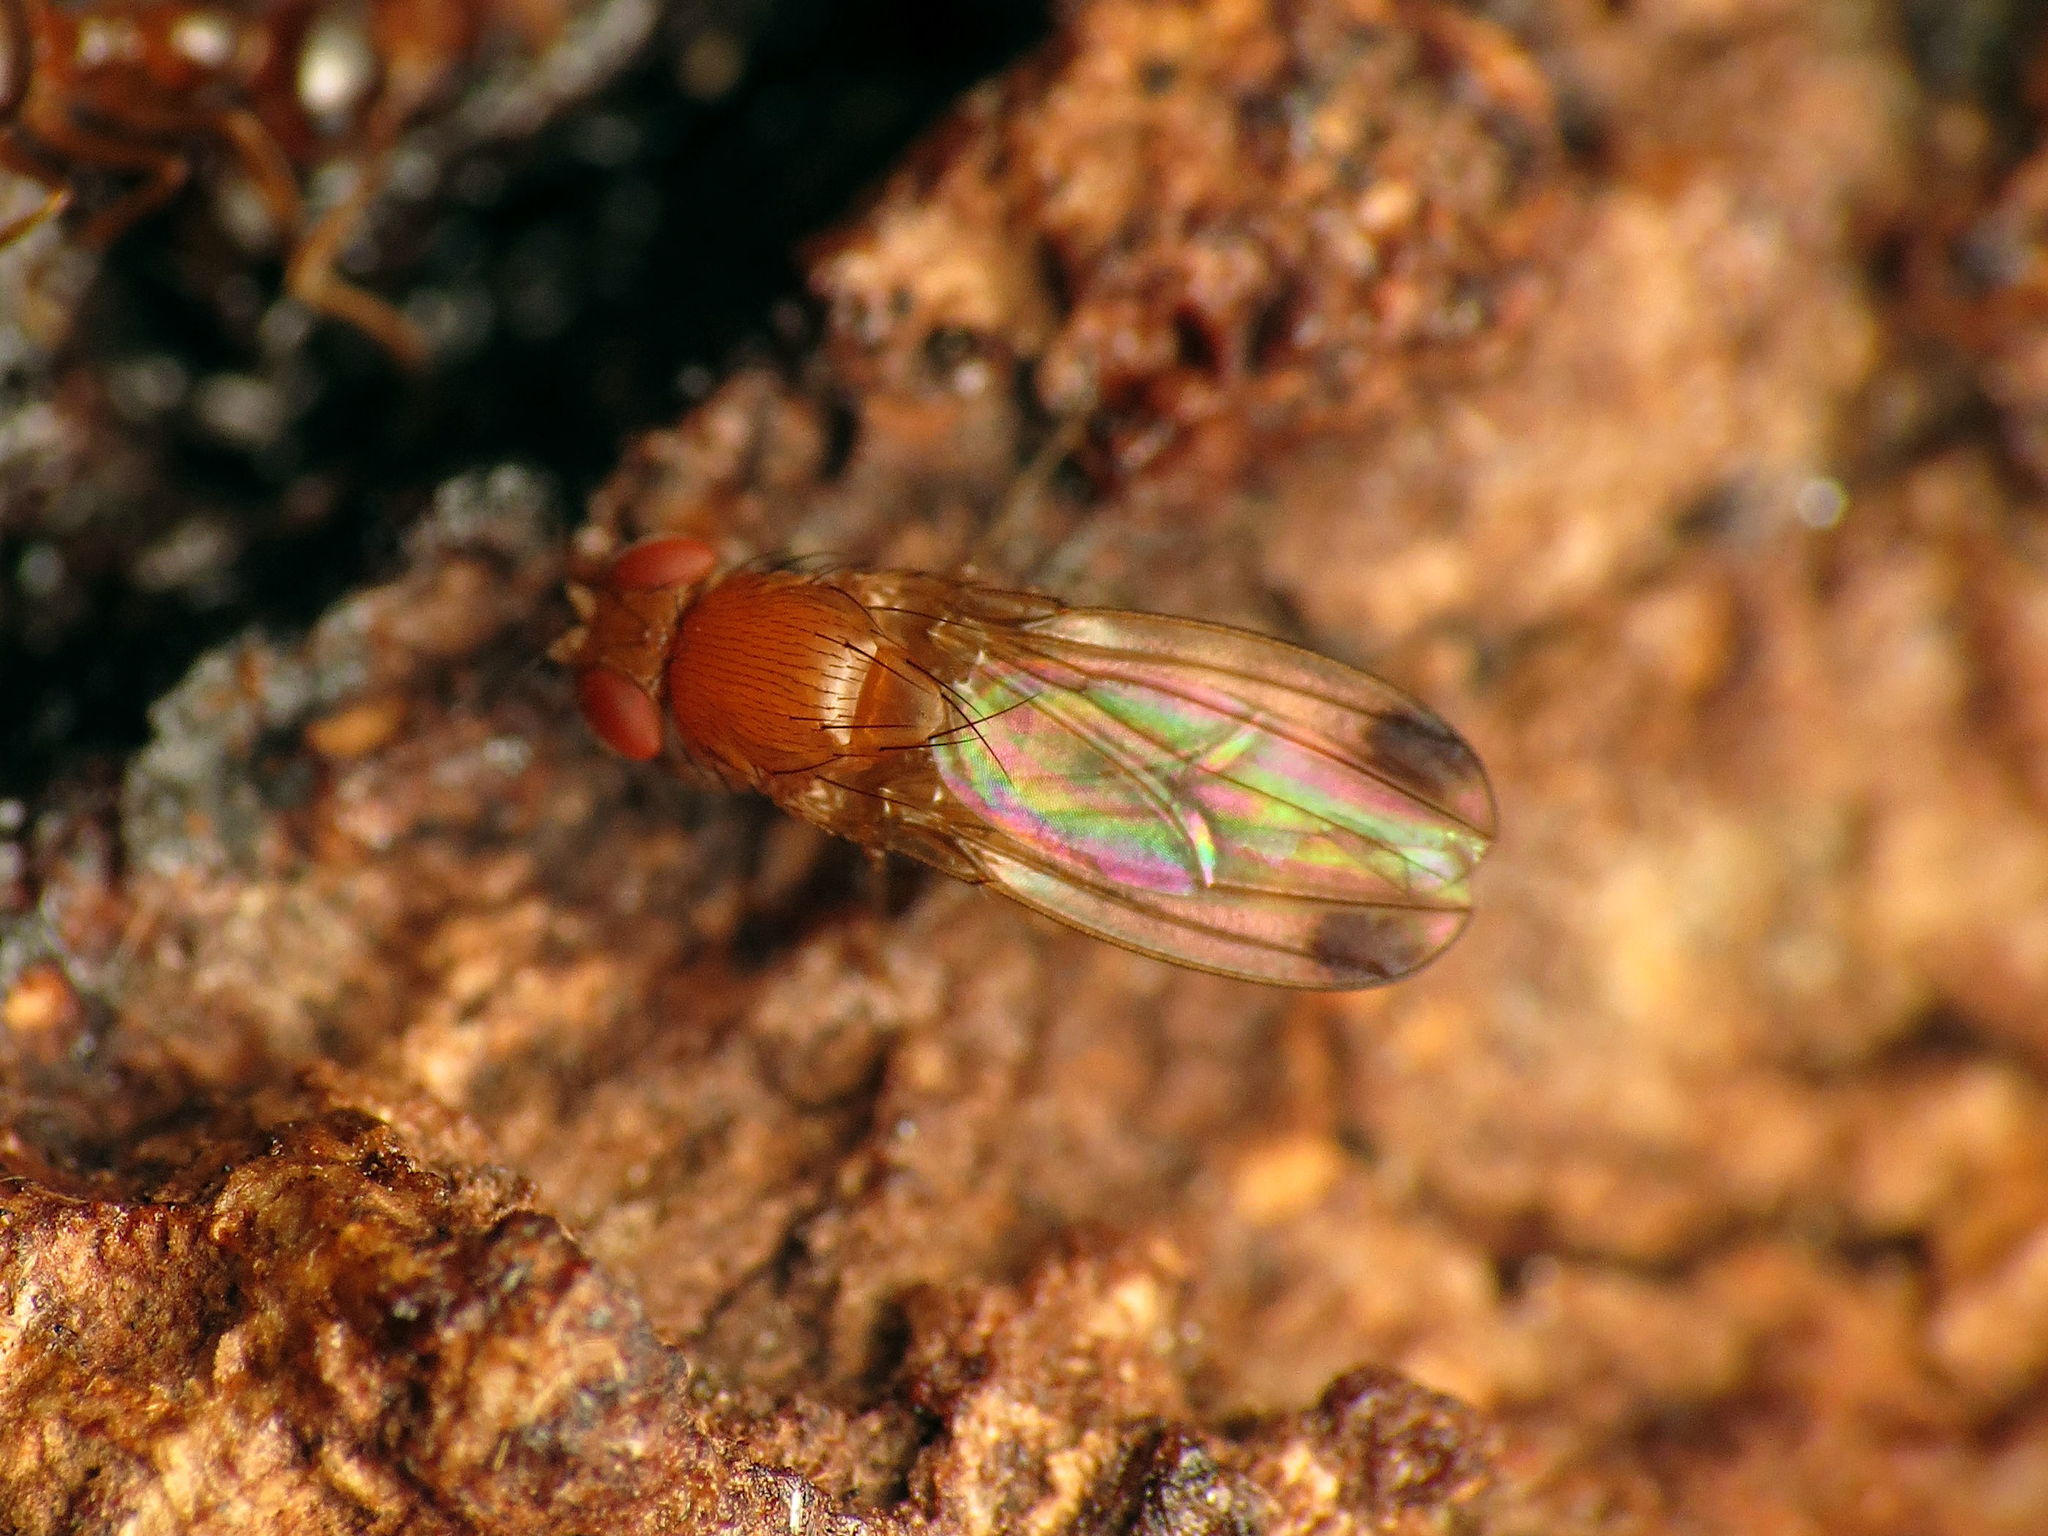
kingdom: Animalia
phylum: Arthropoda
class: Insecta
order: Diptera
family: Drosophilidae
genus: Drosophila
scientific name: Drosophila suzukii
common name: Spotted-wing drosophila
